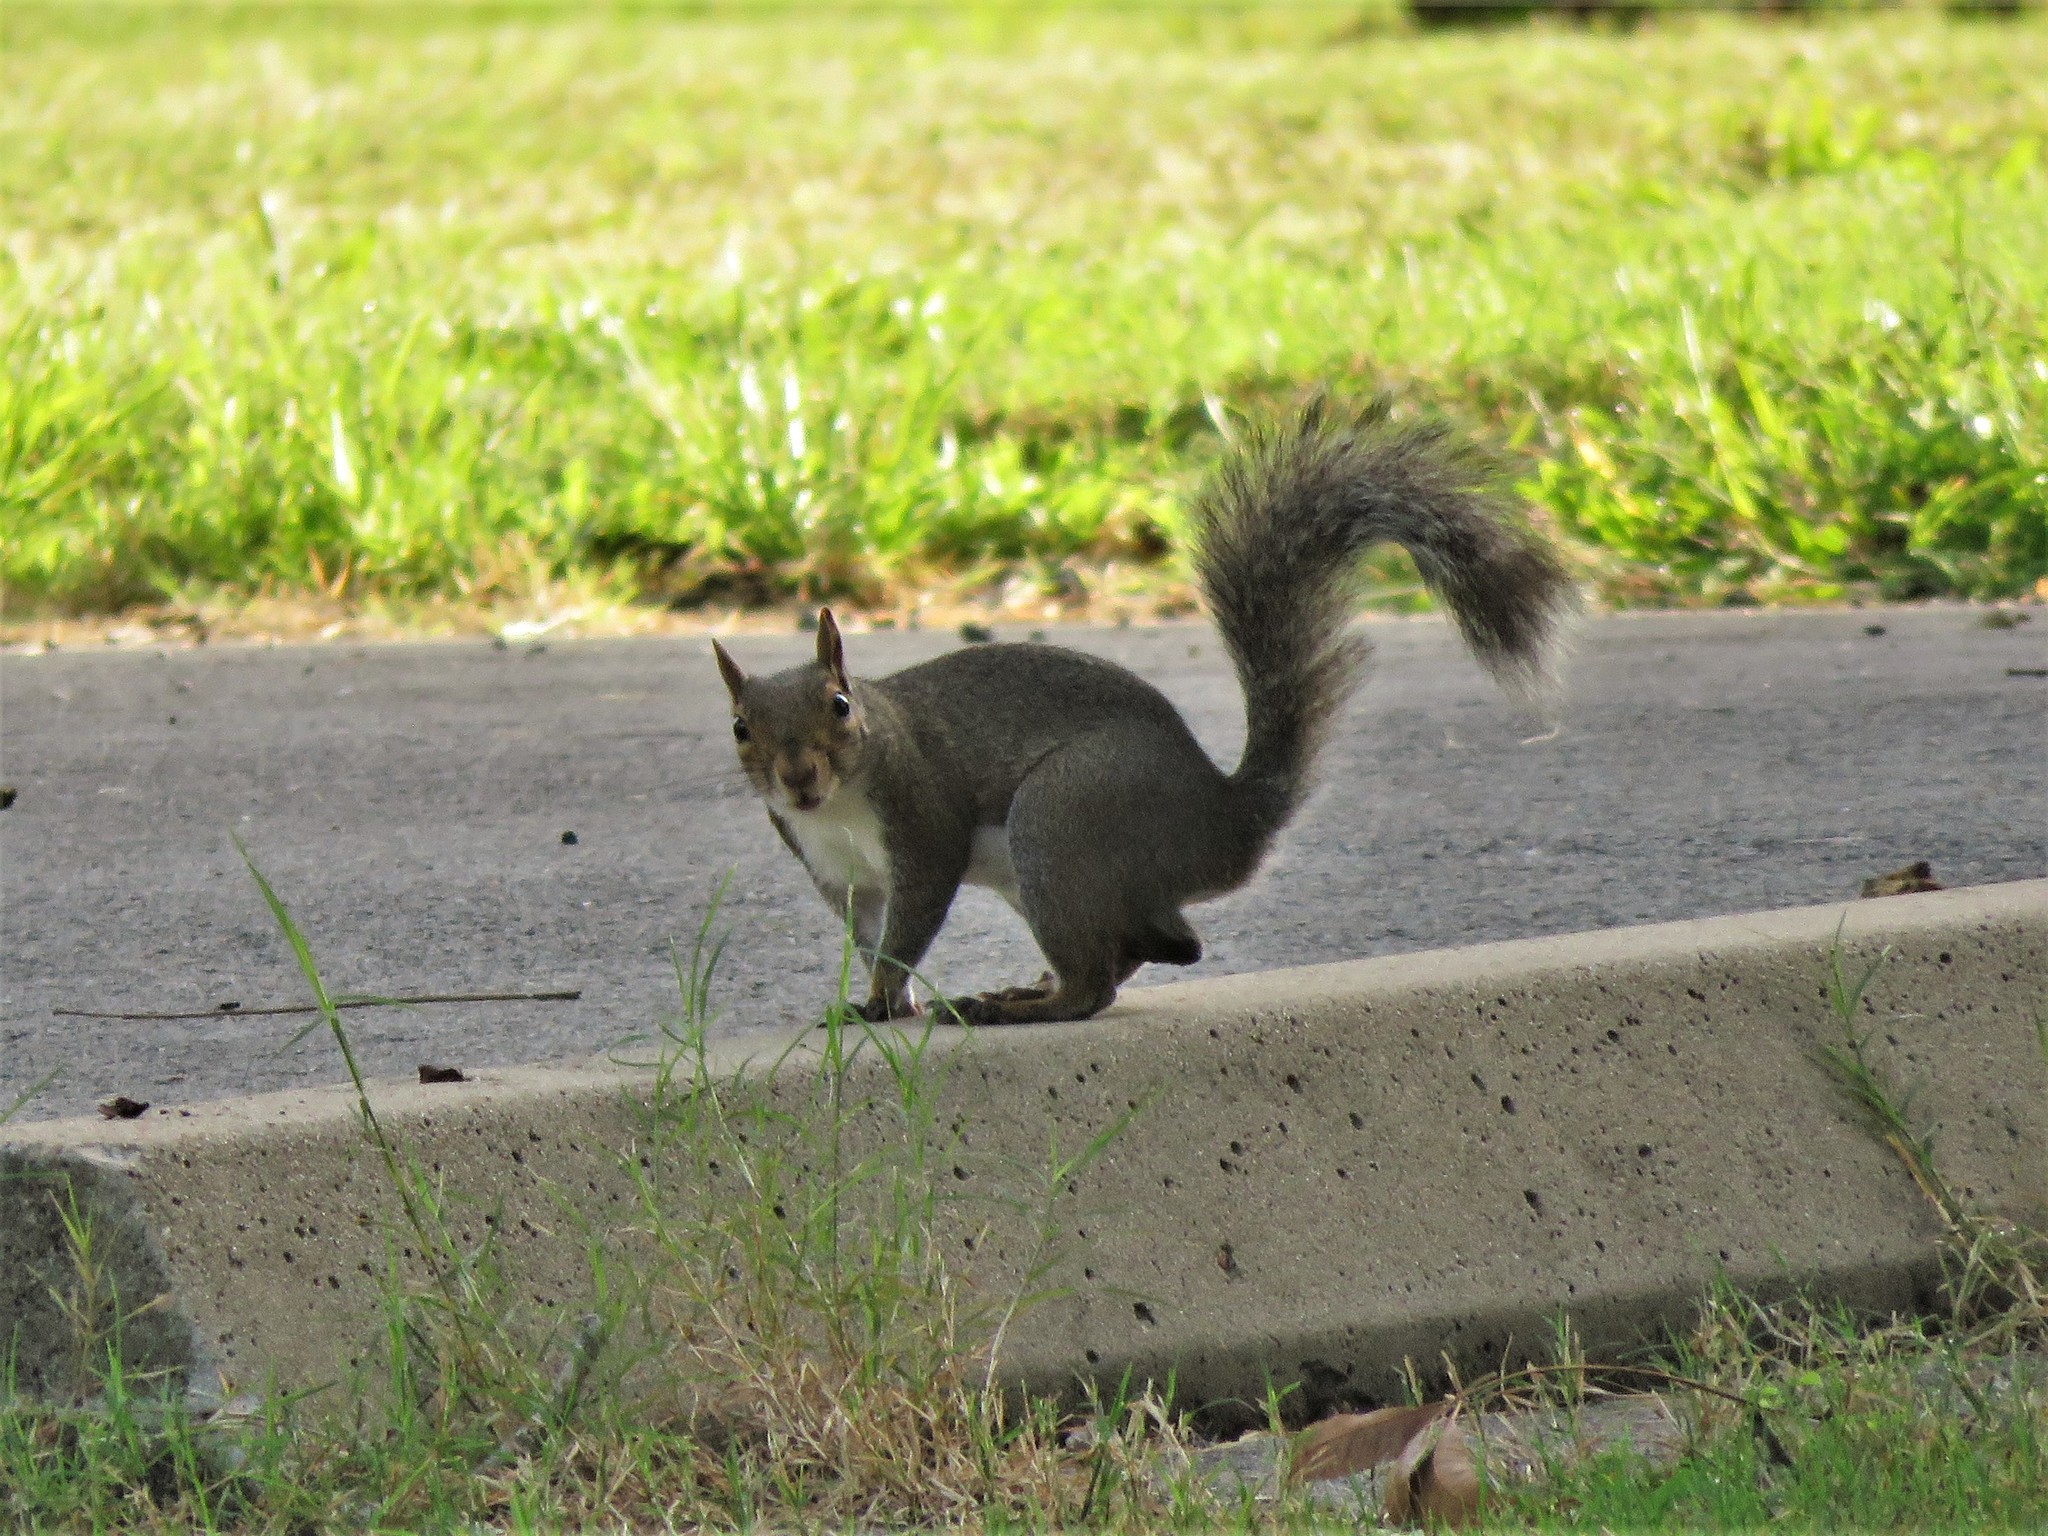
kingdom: Animalia
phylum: Chordata
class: Mammalia
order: Rodentia
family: Sciuridae
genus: Sciurus
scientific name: Sciurus carolinensis
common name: Eastern gray squirrel
